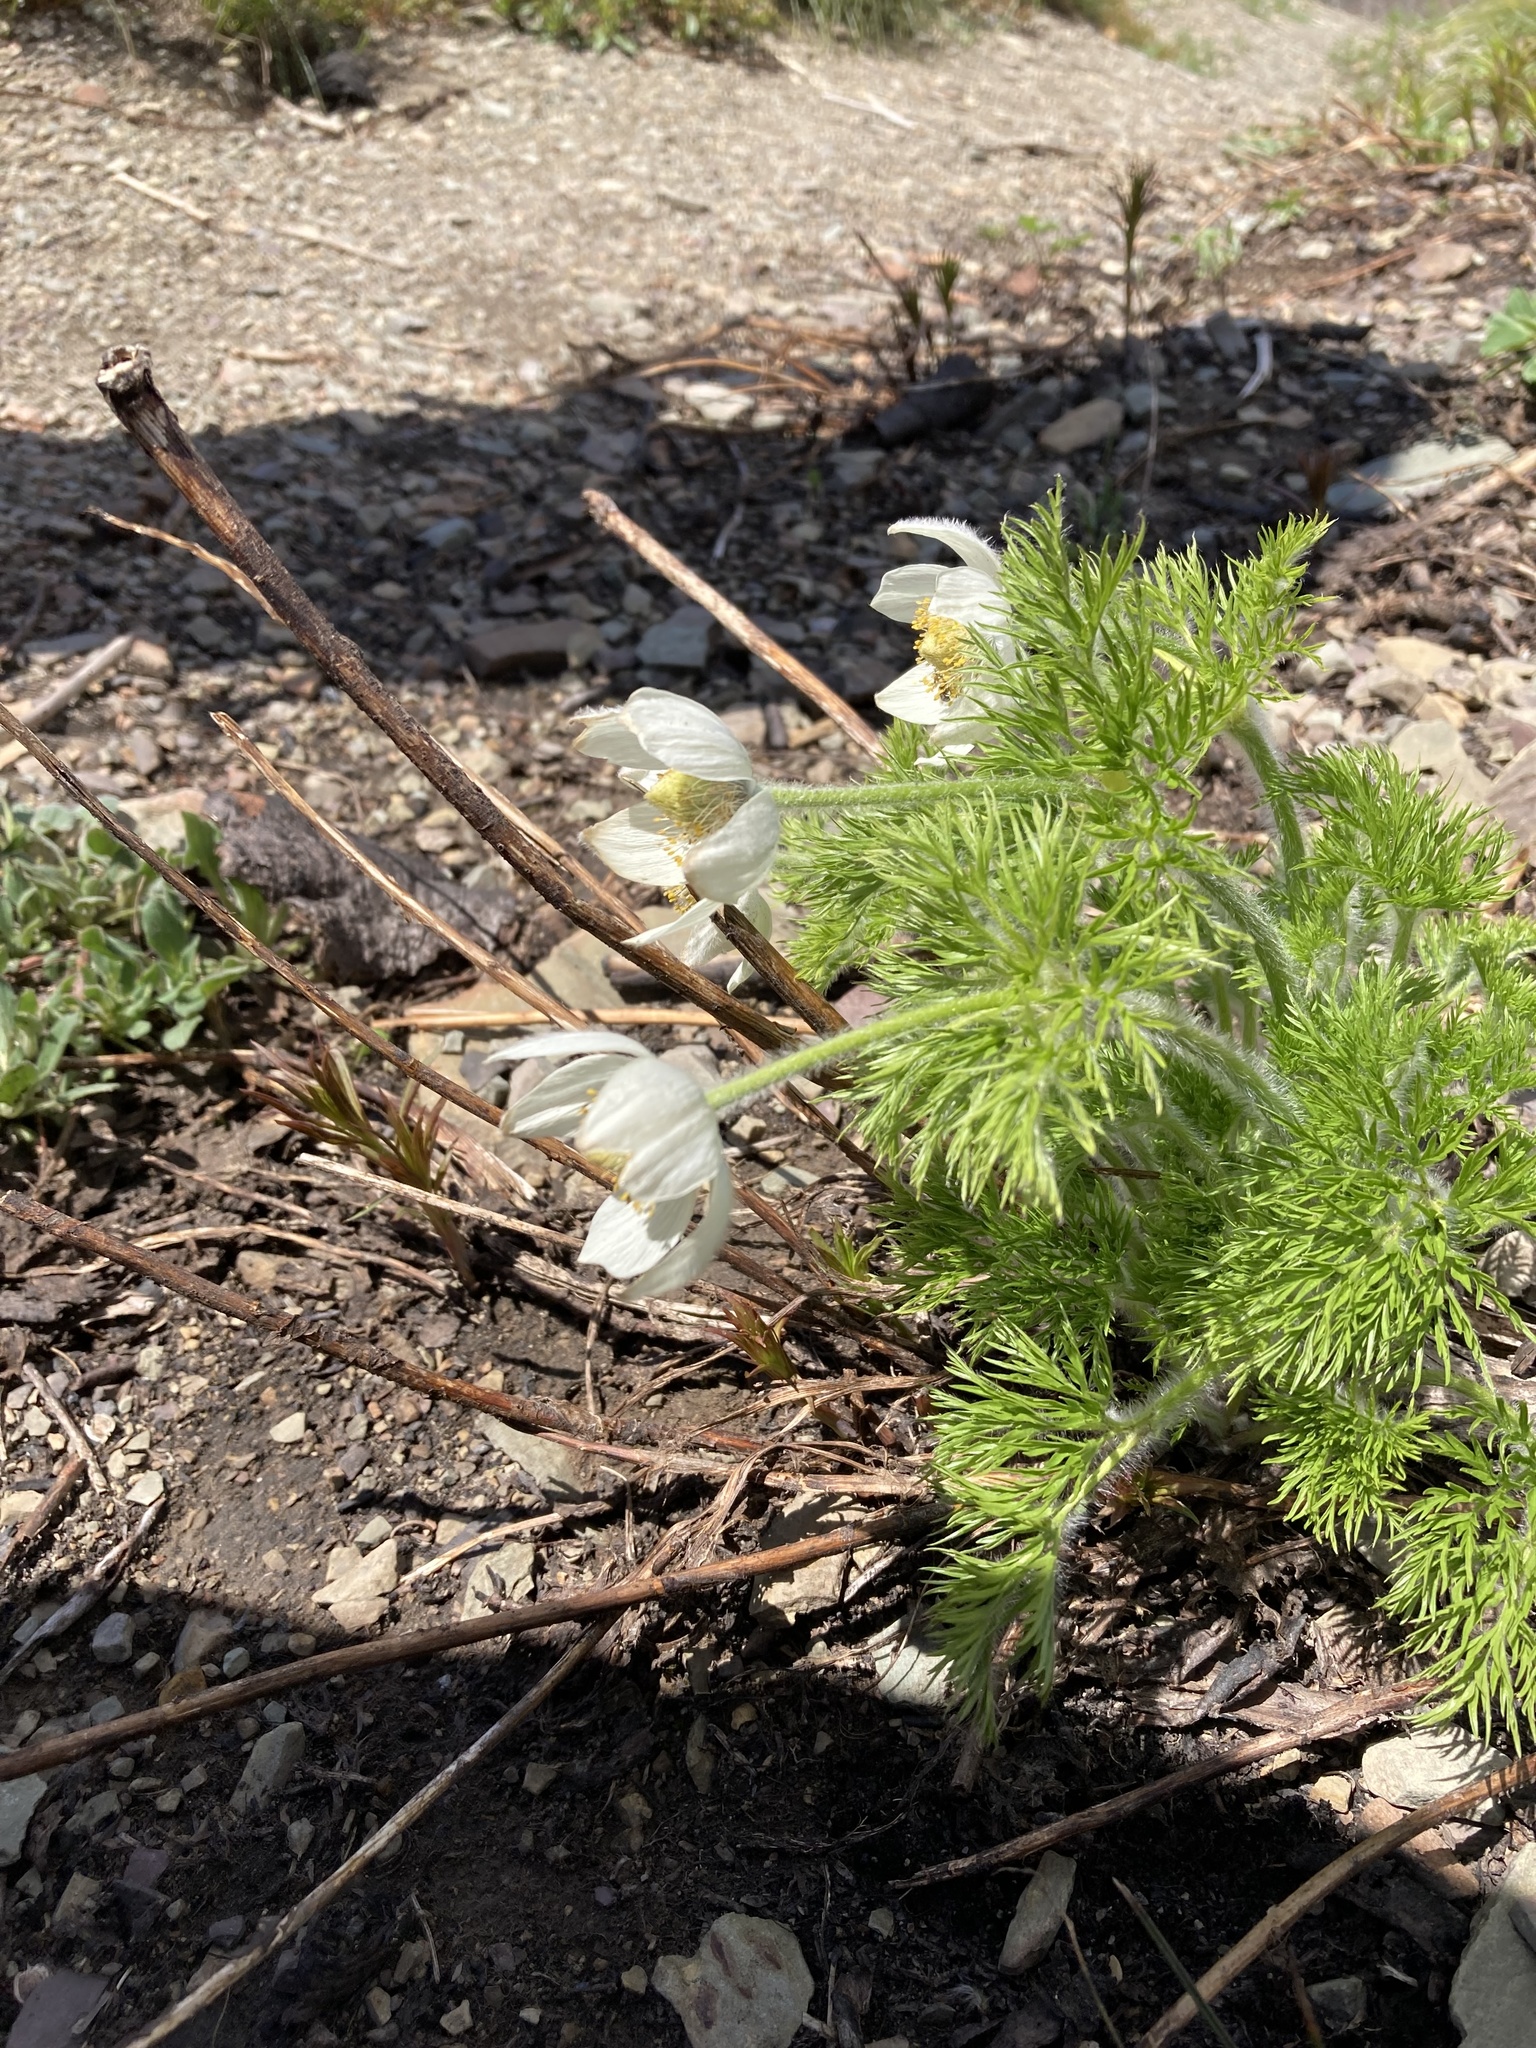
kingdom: Plantae
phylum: Tracheophyta
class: Magnoliopsida
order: Ranunculales
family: Ranunculaceae
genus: Pulsatilla
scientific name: Pulsatilla occidentalis
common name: Mountain pasqueflower
